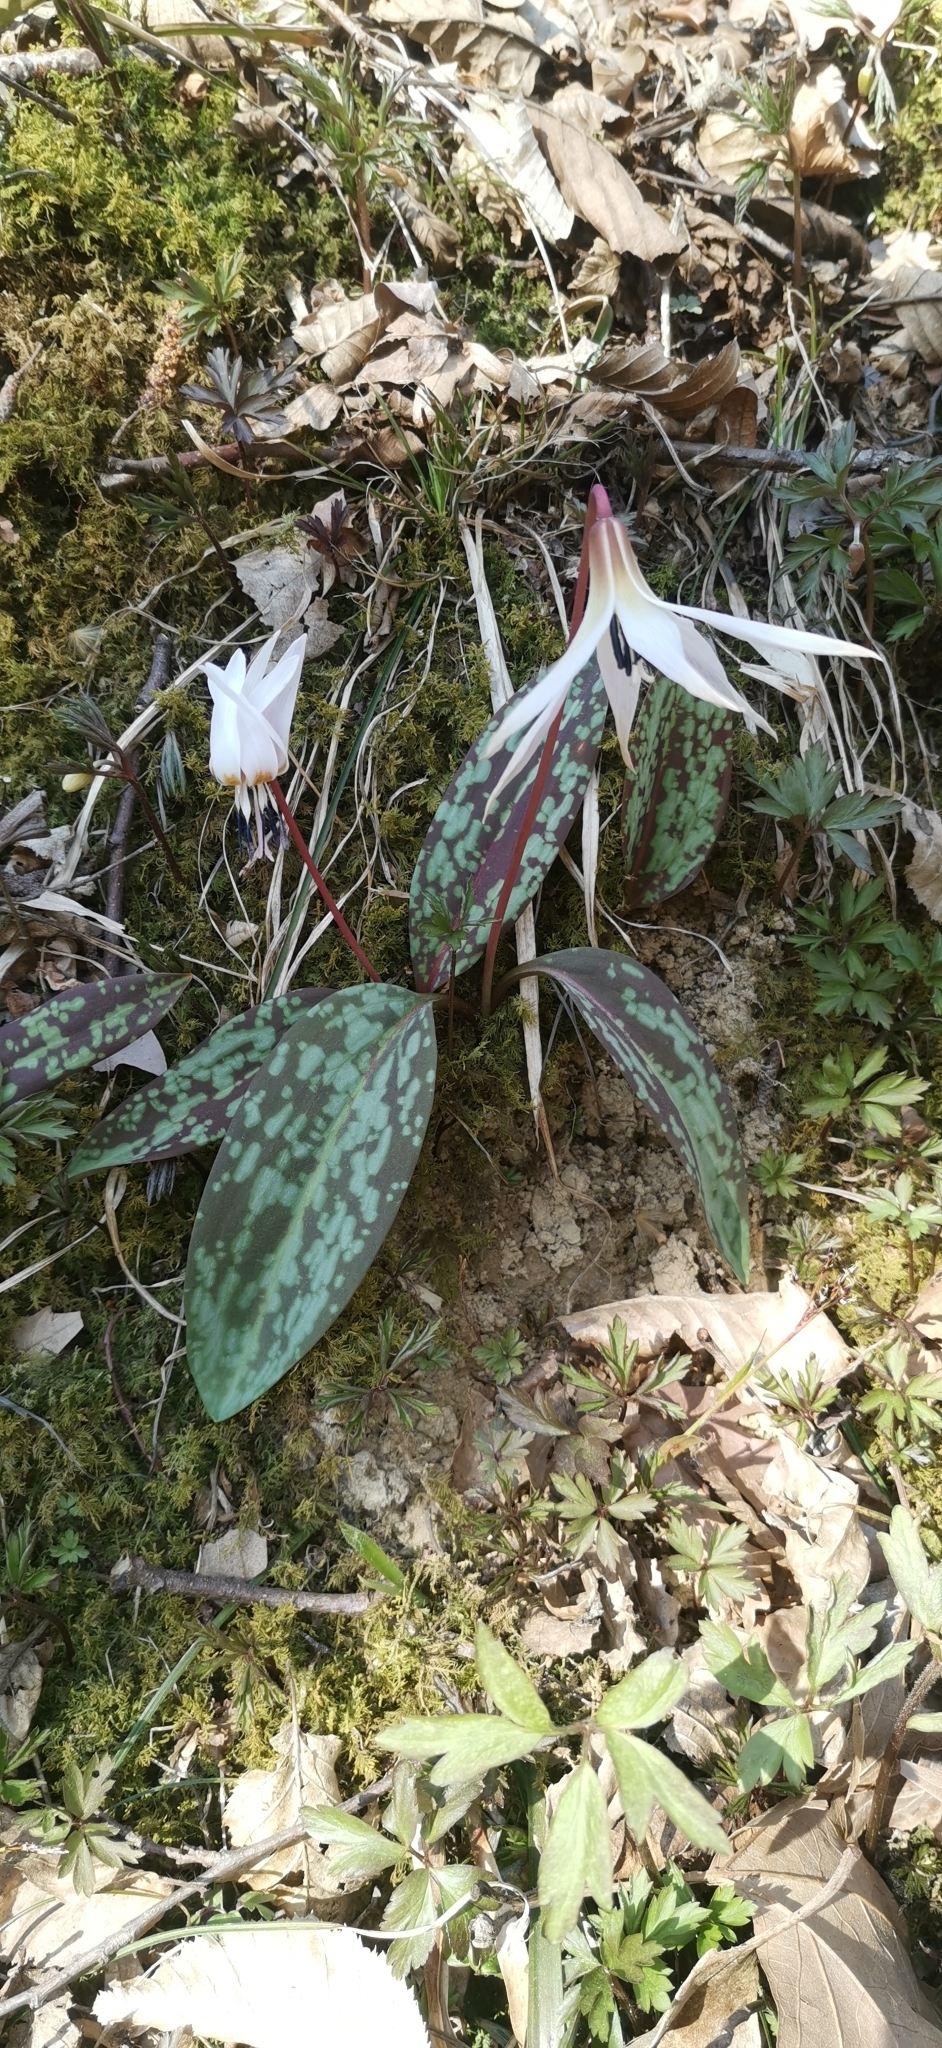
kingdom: Plantae
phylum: Tracheophyta
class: Liliopsida
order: Liliales
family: Liliaceae
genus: Erythronium
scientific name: Erythronium dens-canis
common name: Dog's-tooth-violet
